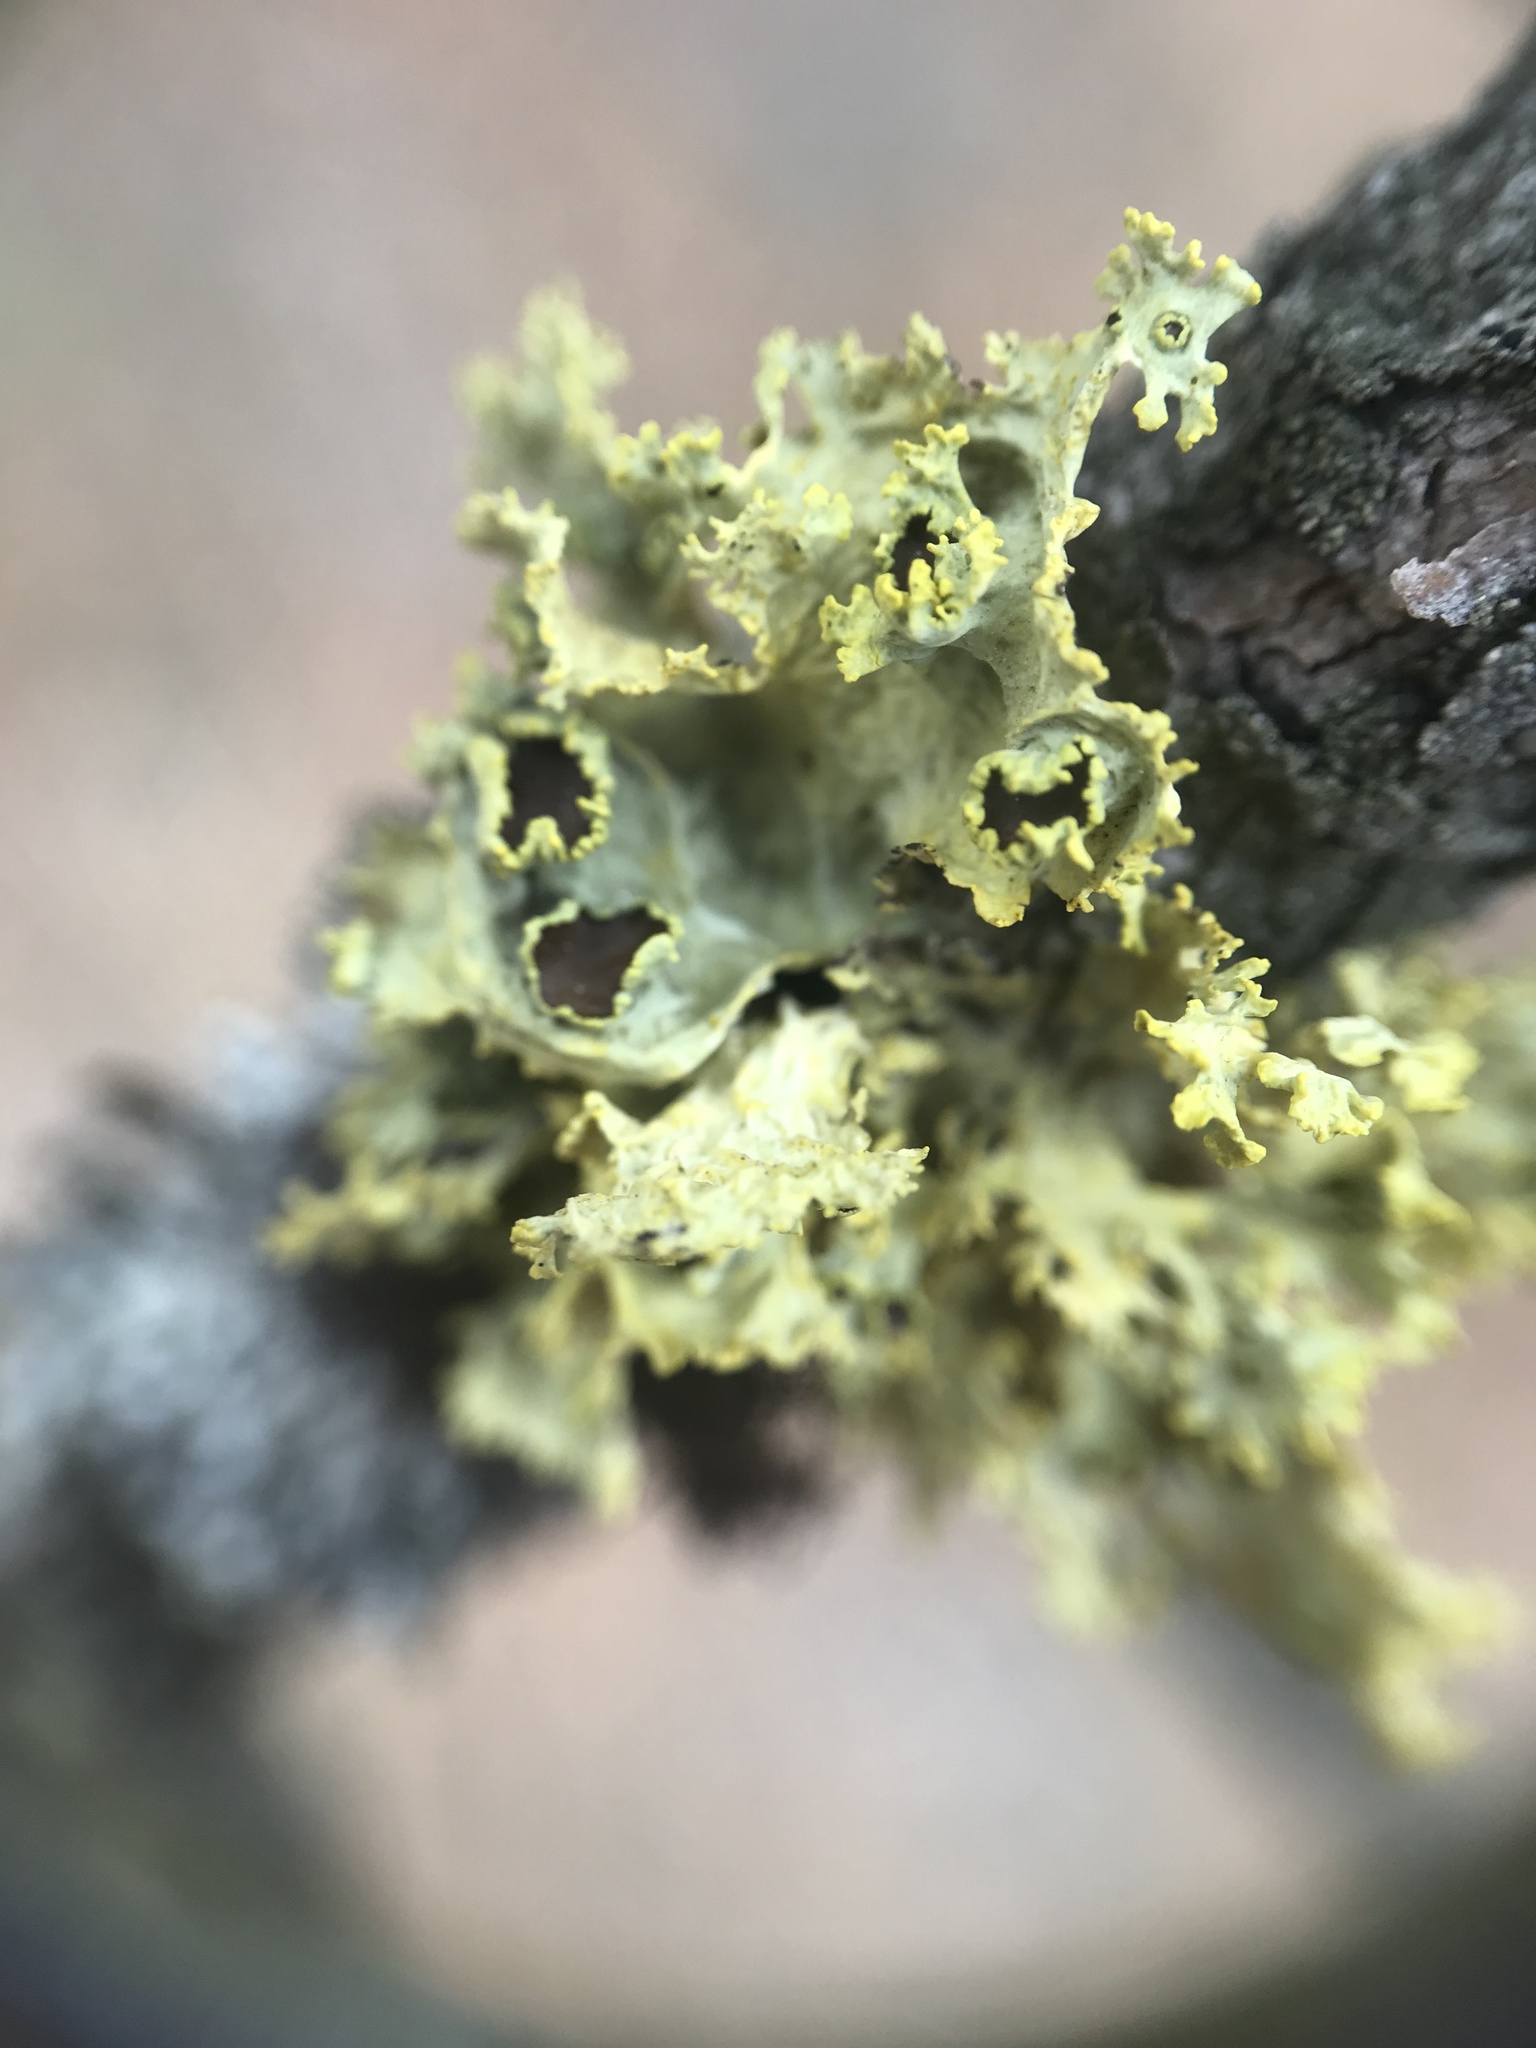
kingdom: Fungi
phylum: Ascomycota
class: Lecanoromycetes
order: Lecanorales
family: Parmeliaceae
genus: Vulpicida
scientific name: Vulpicida canadensis
